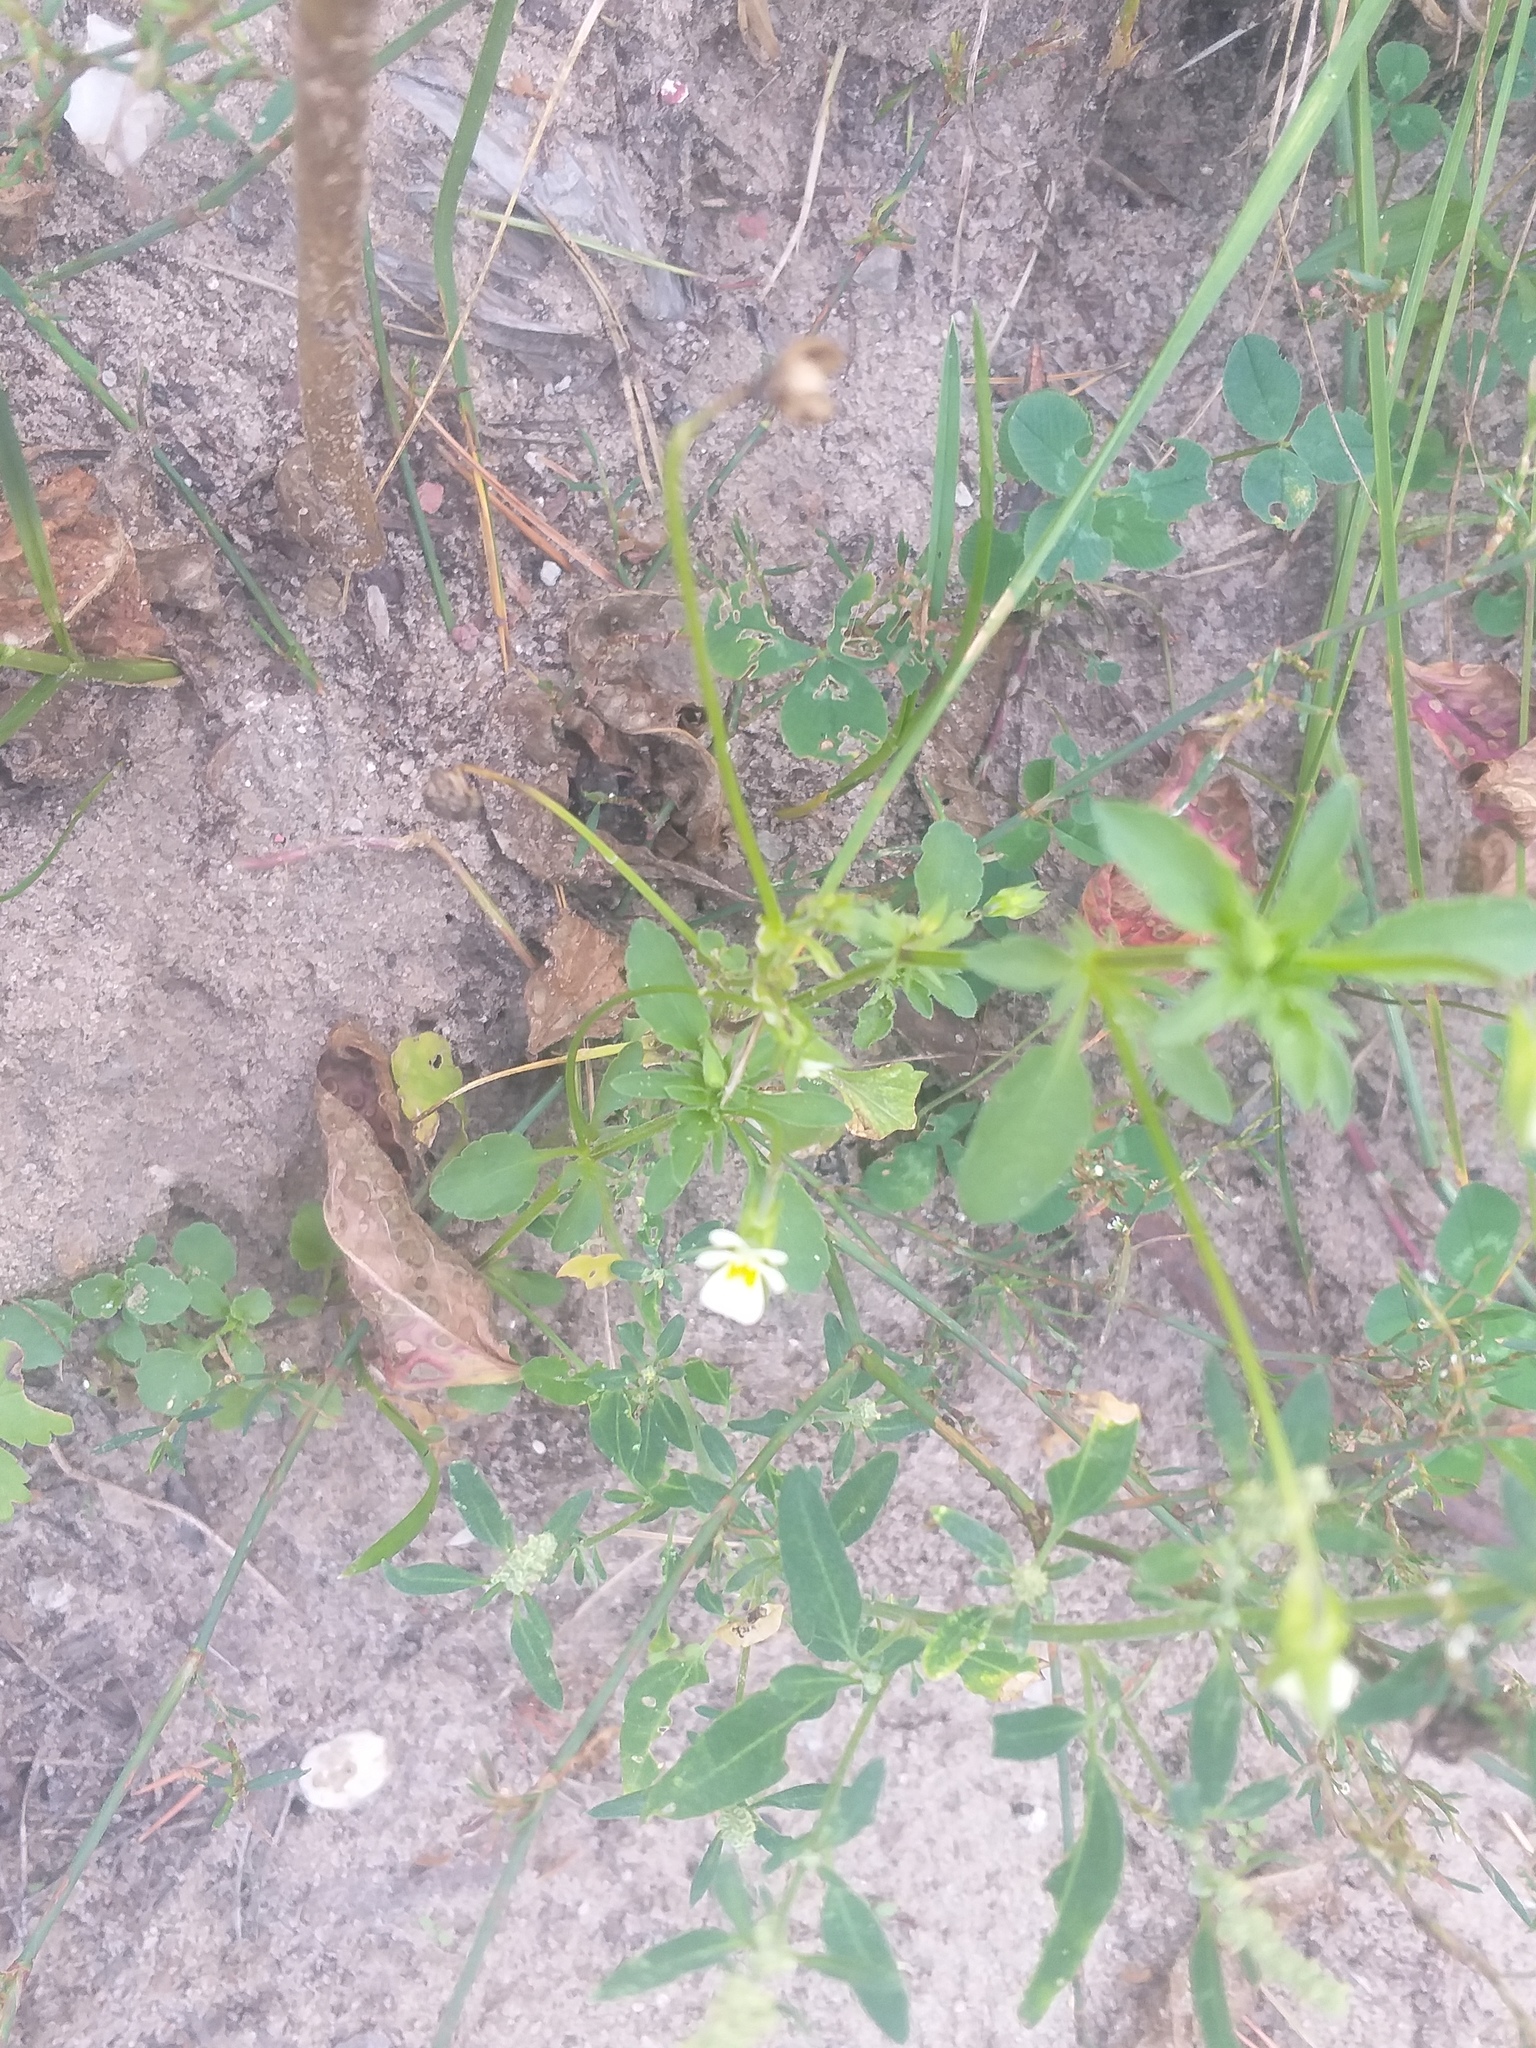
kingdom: Plantae
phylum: Tracheophyta
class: Magnoliopsida
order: Malpighiales
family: Violaceae
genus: Viola
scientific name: Viola arvensis
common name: Field pansy
